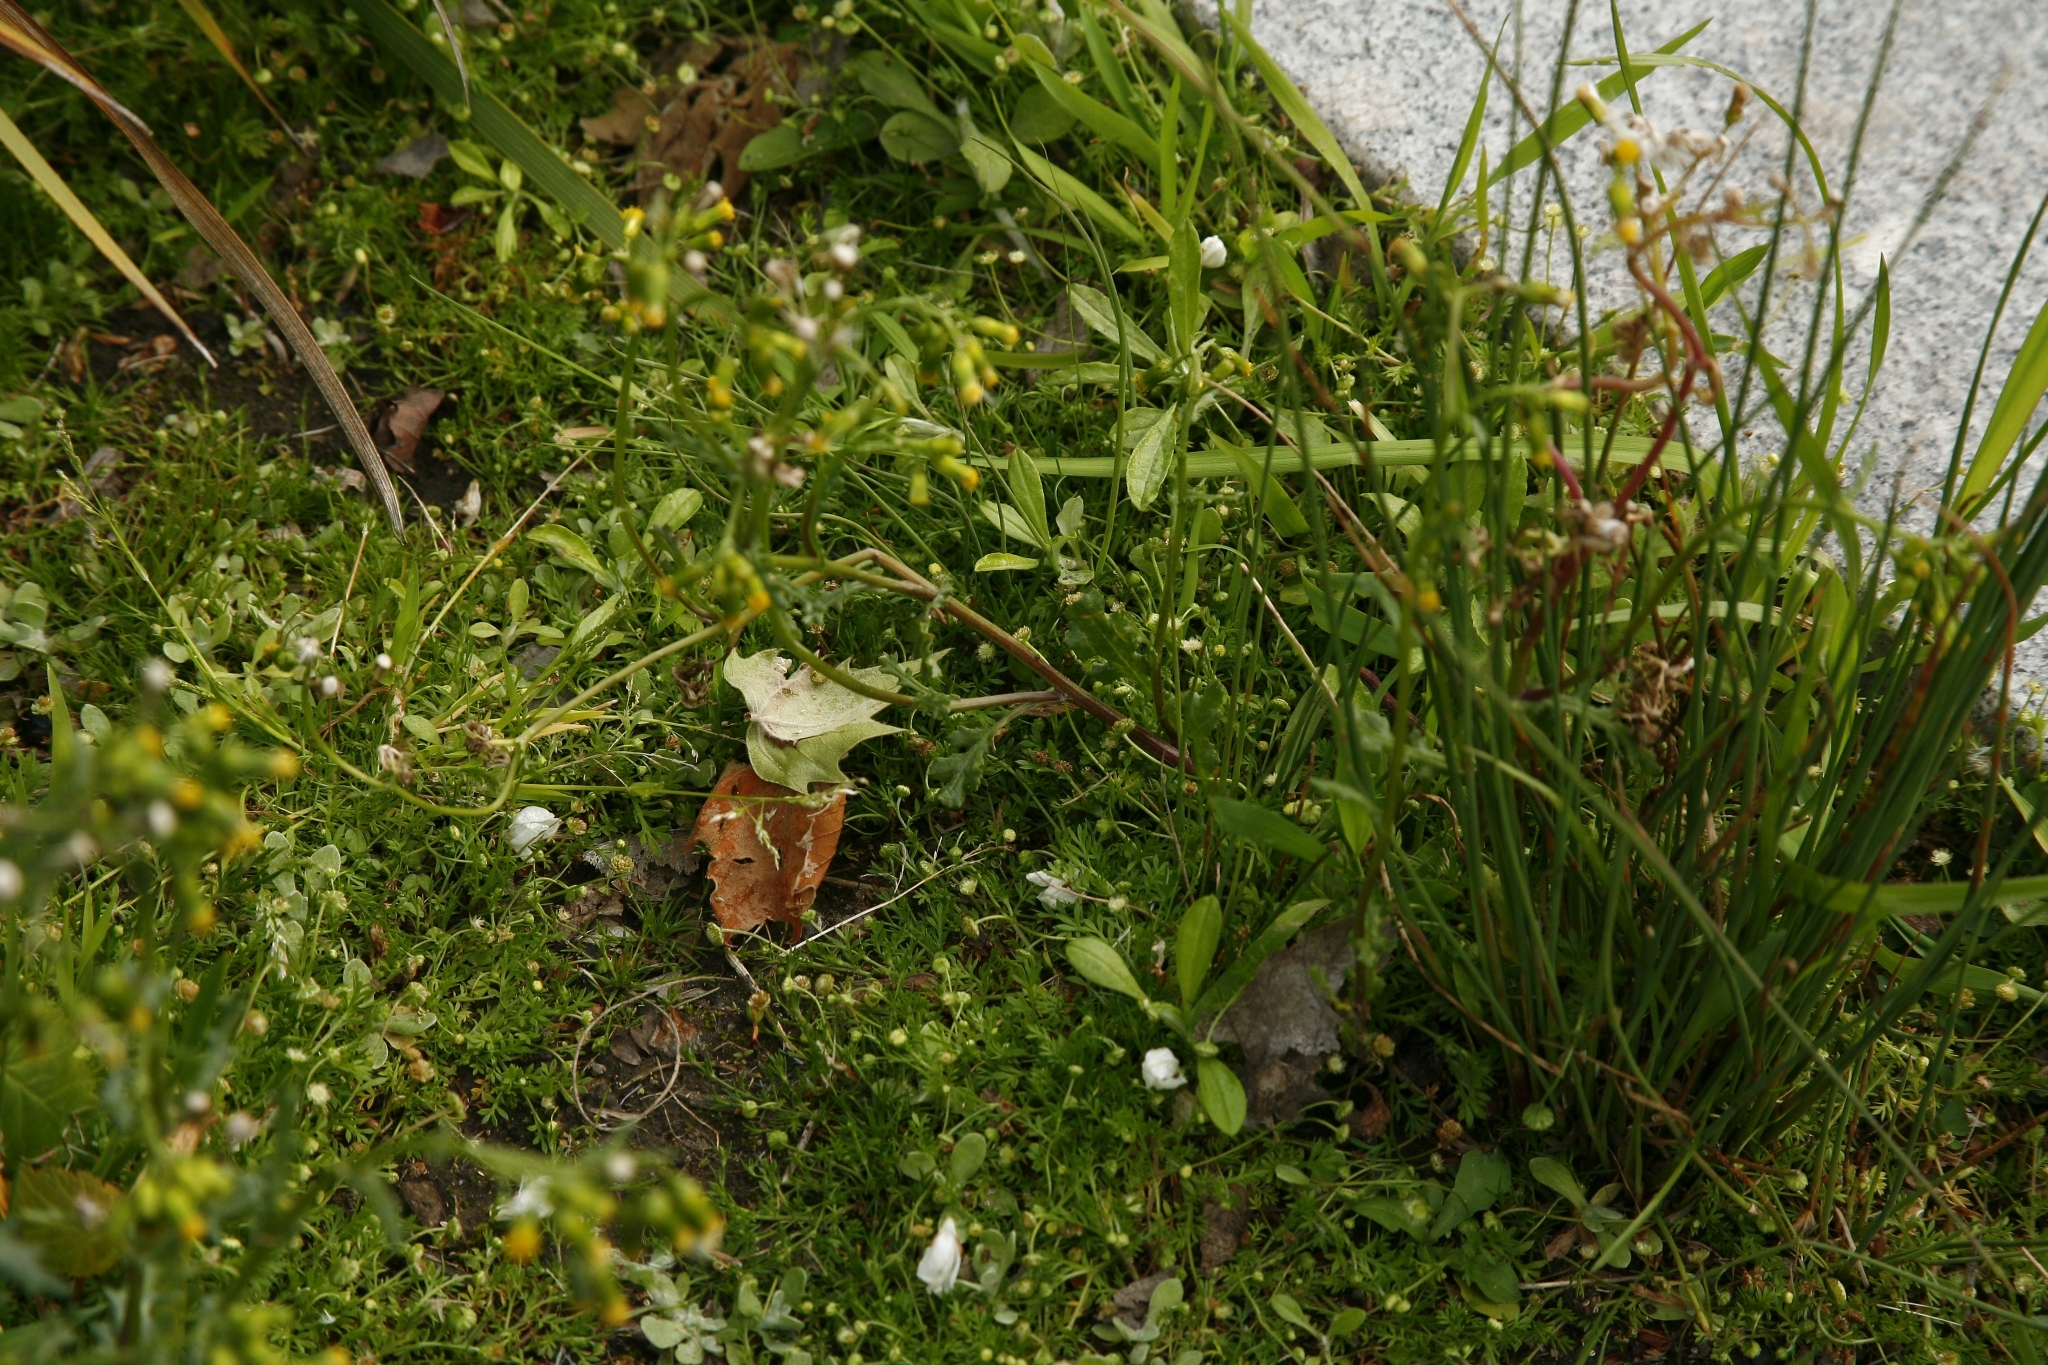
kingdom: Plantae
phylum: Tracheophyta
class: Magnoliopsida
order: Asterales
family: Asteraceae
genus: Senecio
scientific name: Senecio vulgaris
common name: Old-man-in-the-spring
